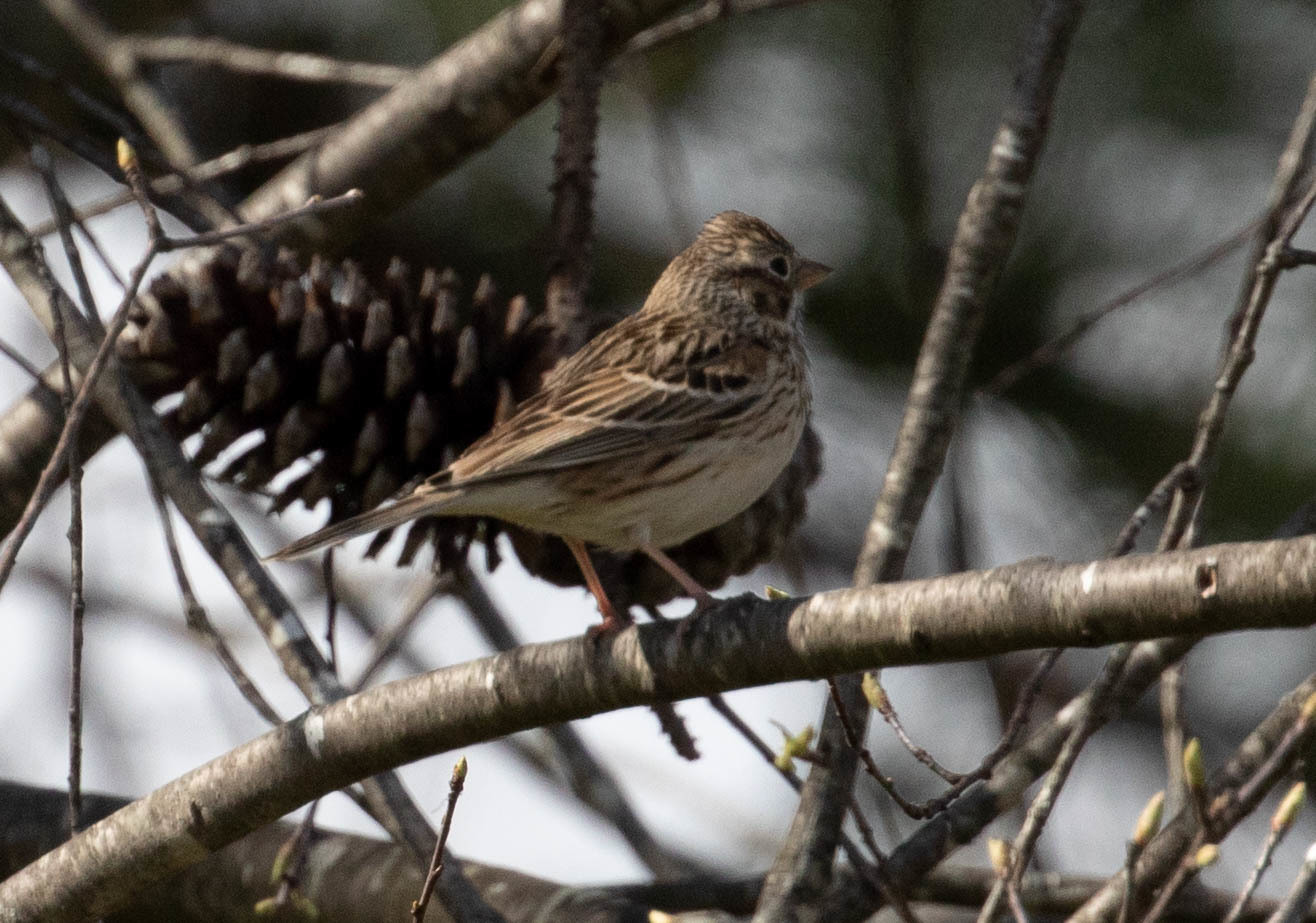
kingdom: Animalia
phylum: Chordata
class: Aves
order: Passeriformes
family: Passerellidae
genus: Pooecetes
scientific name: Pooecetes gramineus
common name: Vesper sparrow
